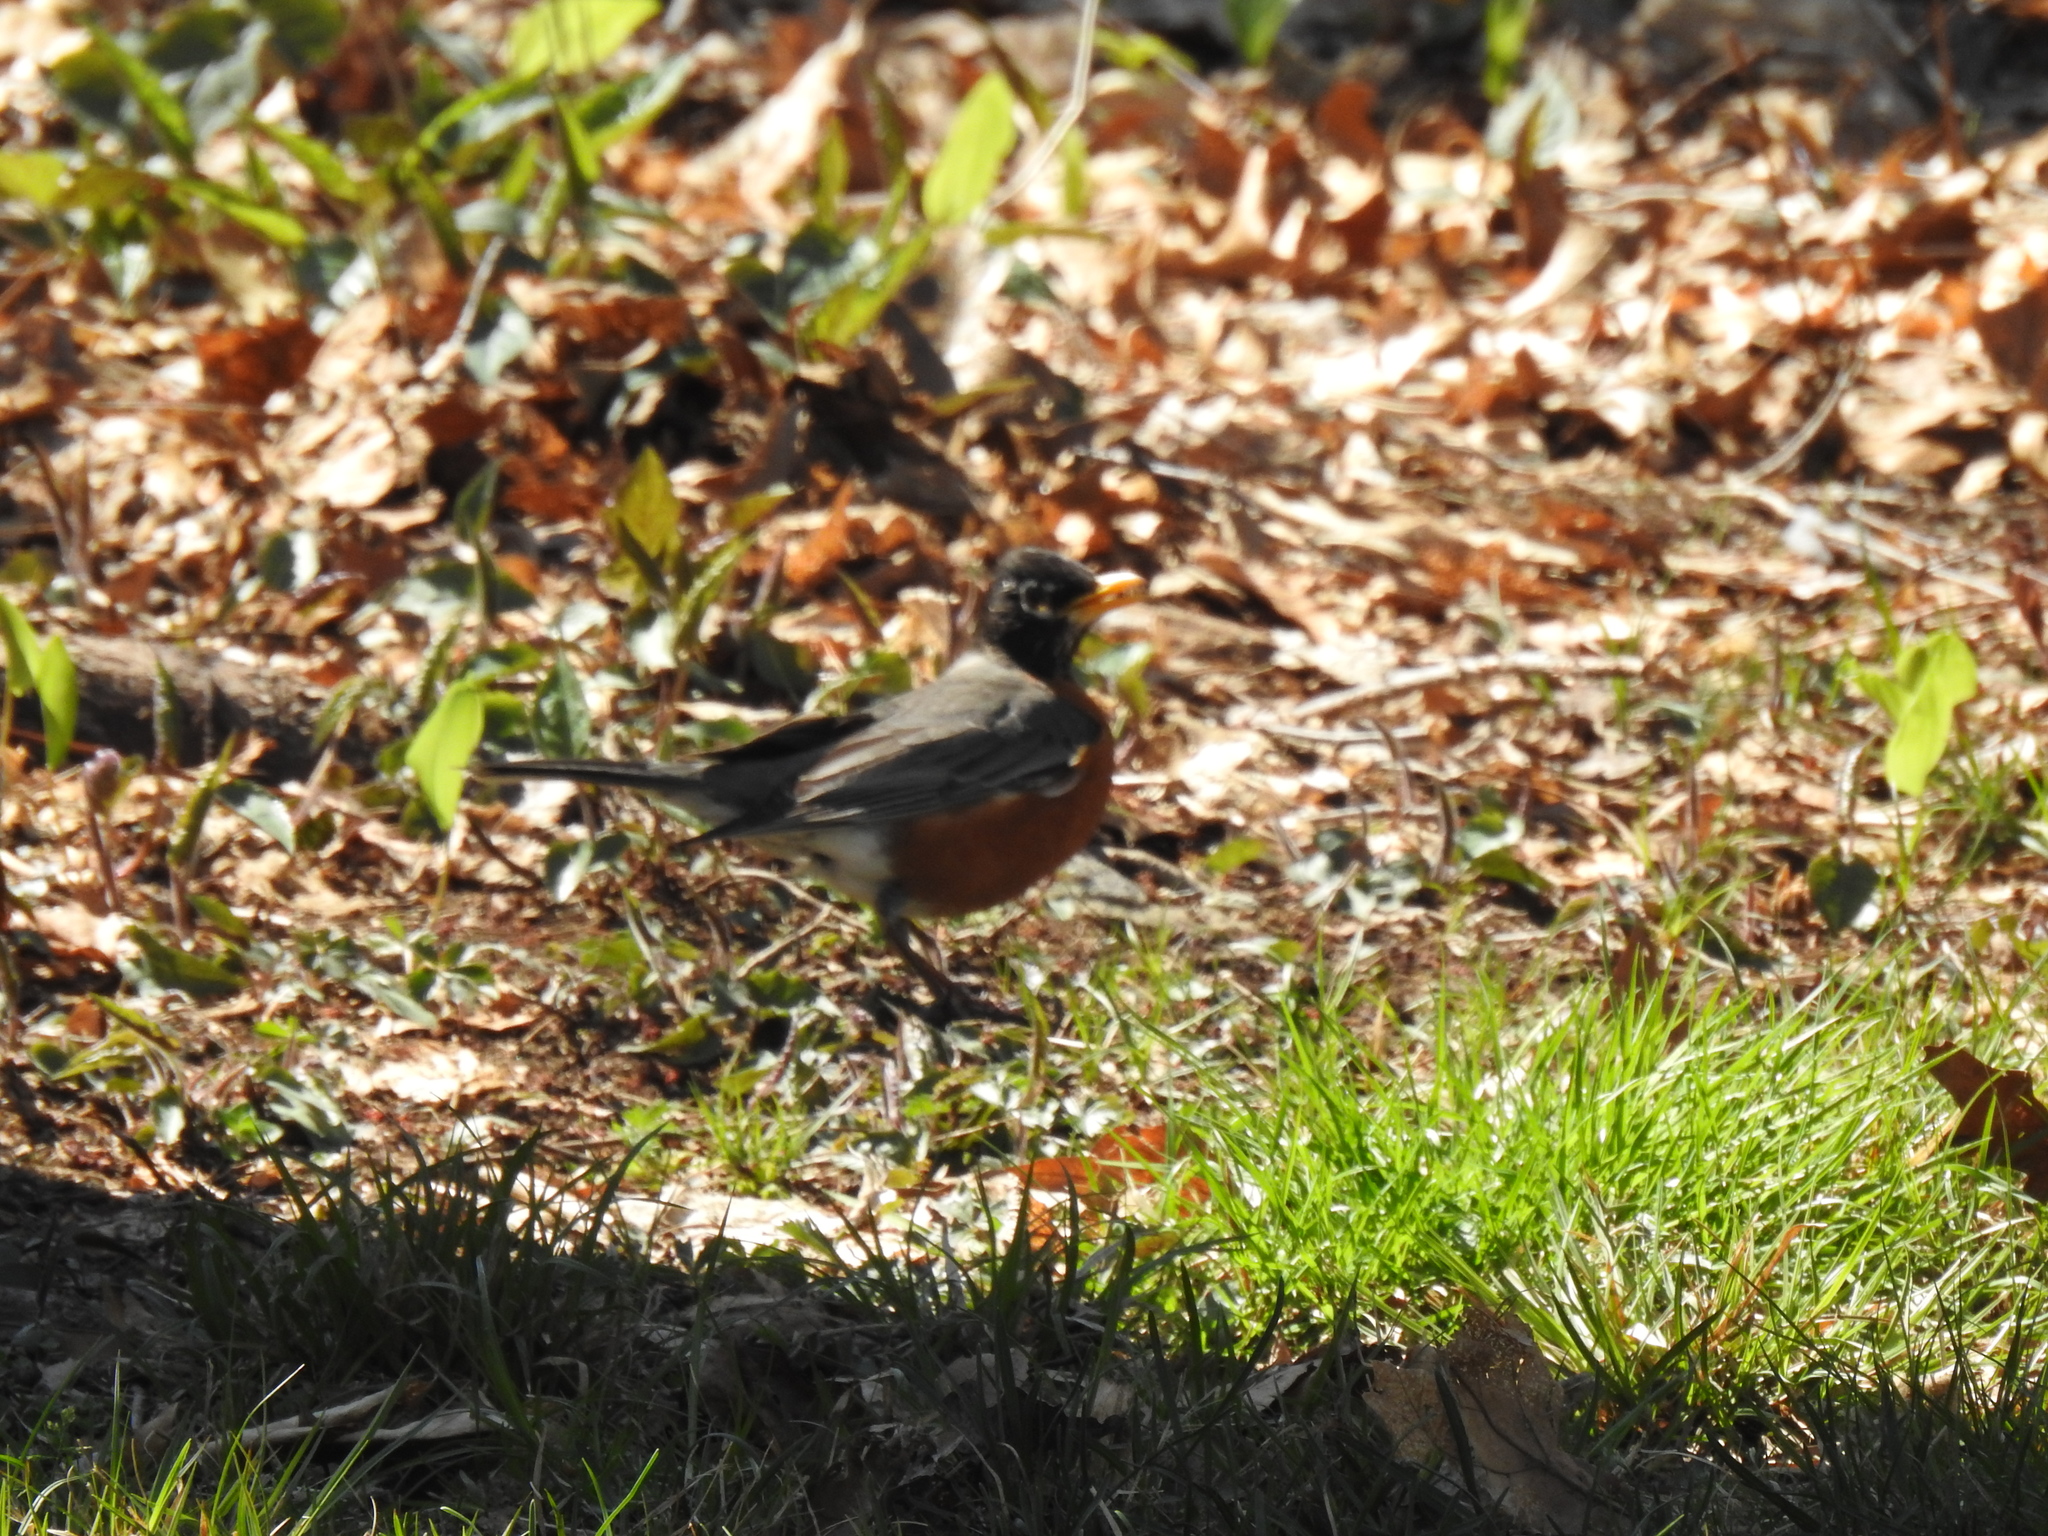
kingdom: Animalia
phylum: Chordata
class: Aves
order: Passeriformes
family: Turdidae
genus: Turdus
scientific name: Turdus migratorius
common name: American robin
